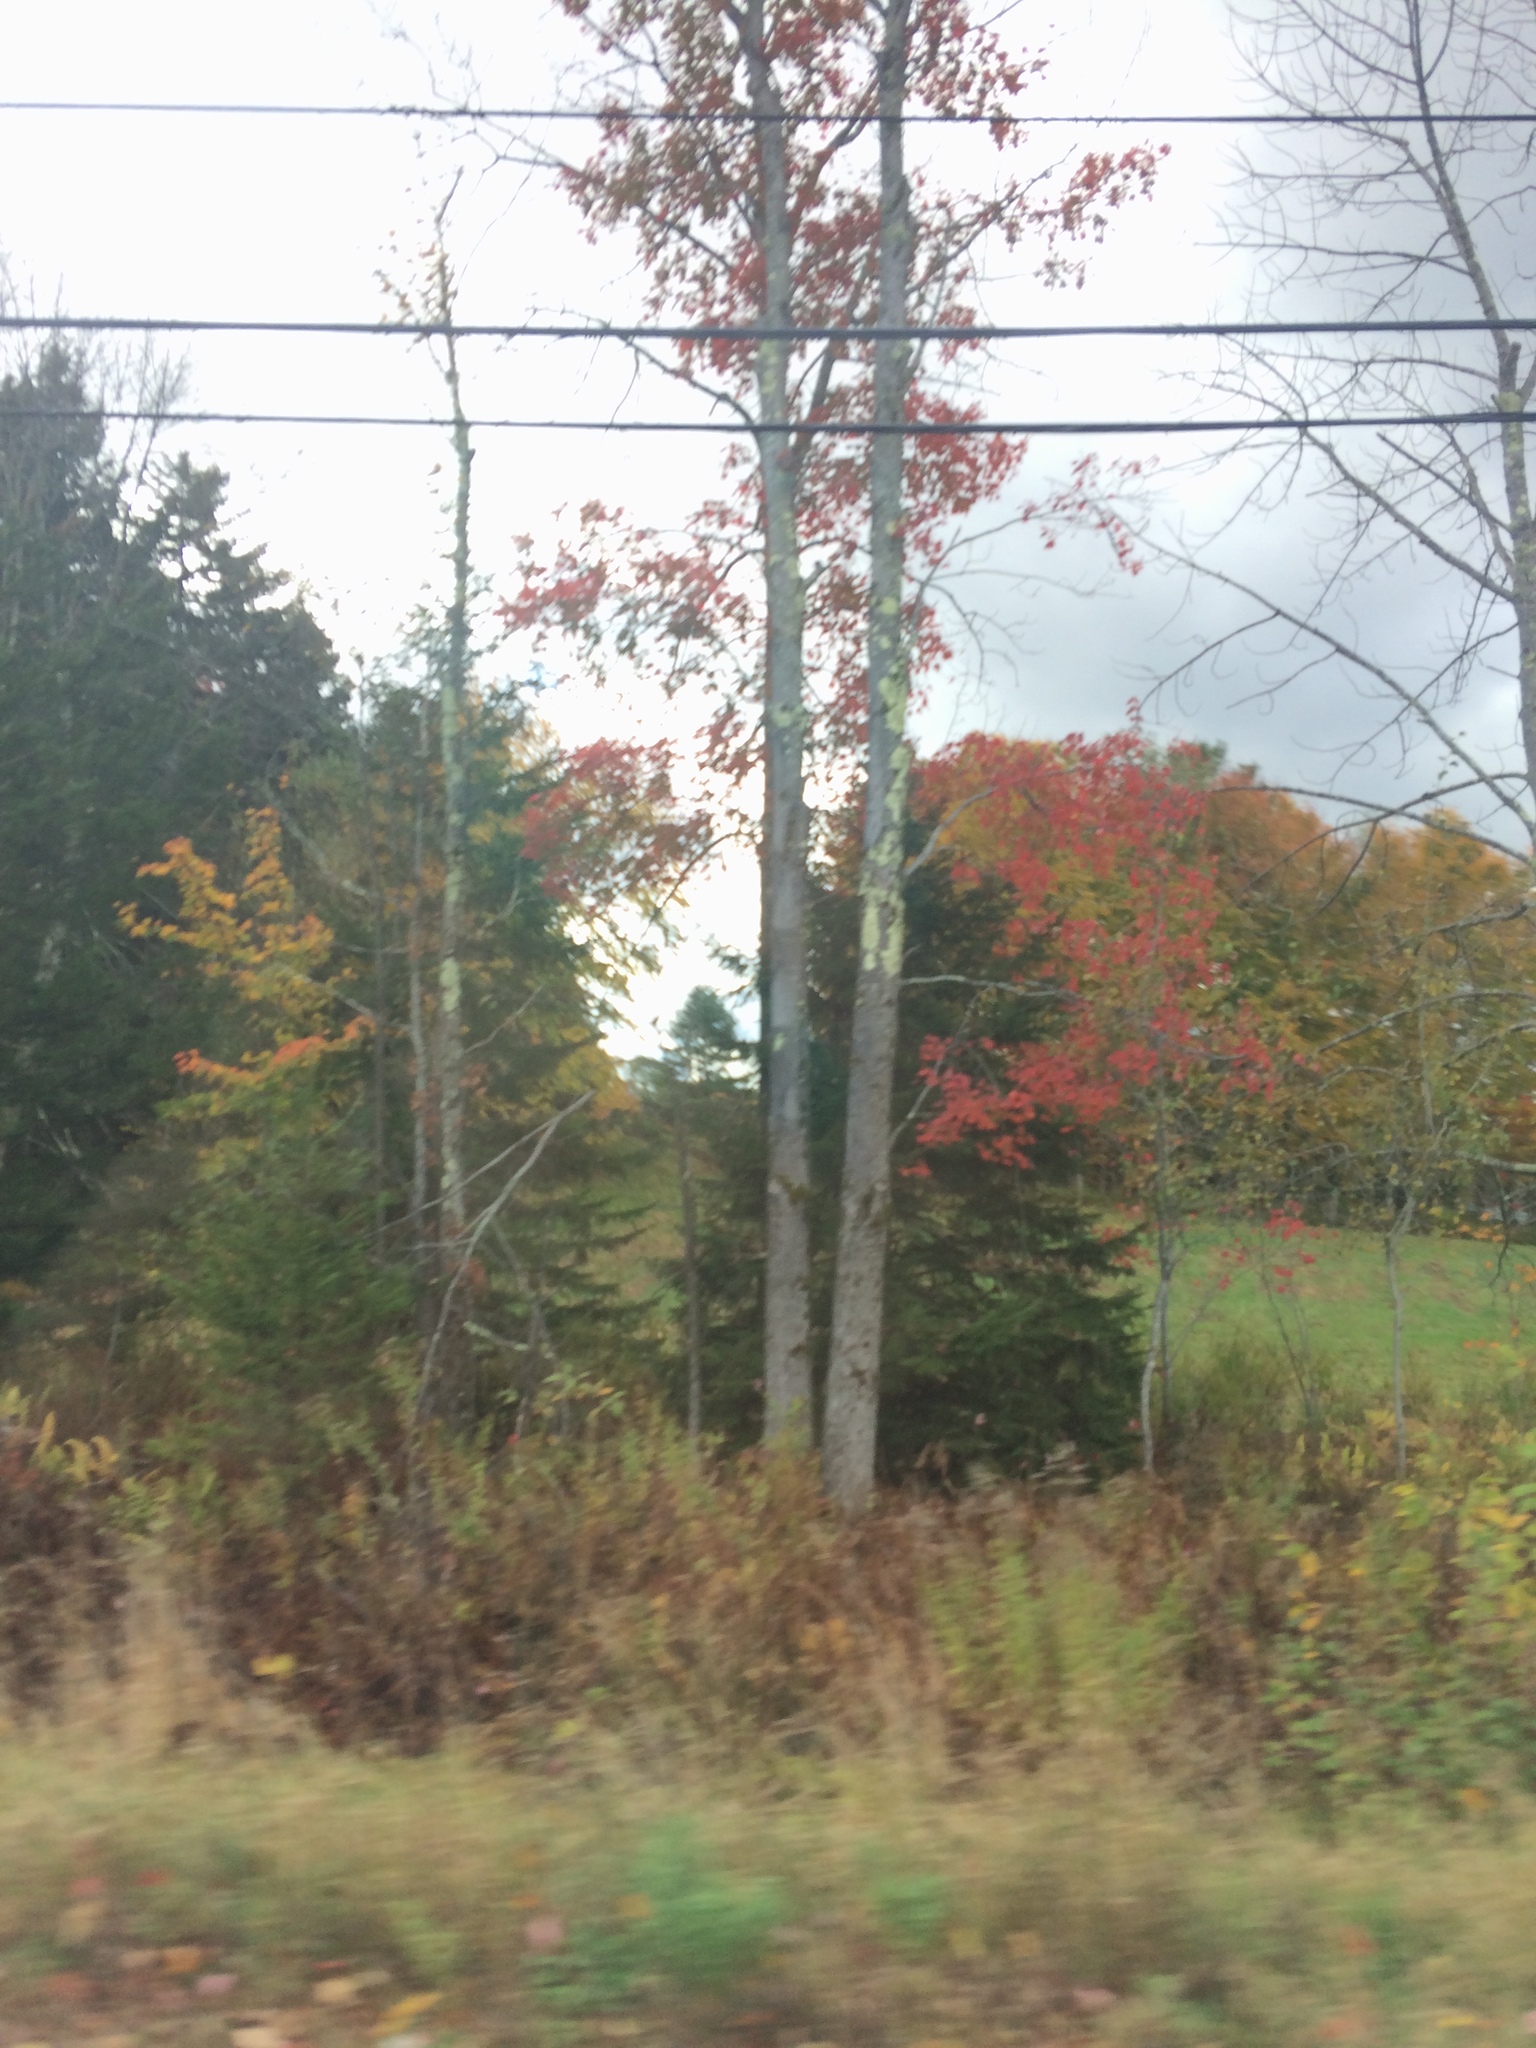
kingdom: Plantae
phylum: Tracheophyta
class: Magnoliopsida
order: Sapindales
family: Sapindaceae
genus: Acer
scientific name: Acer rubrum
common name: Red maple
